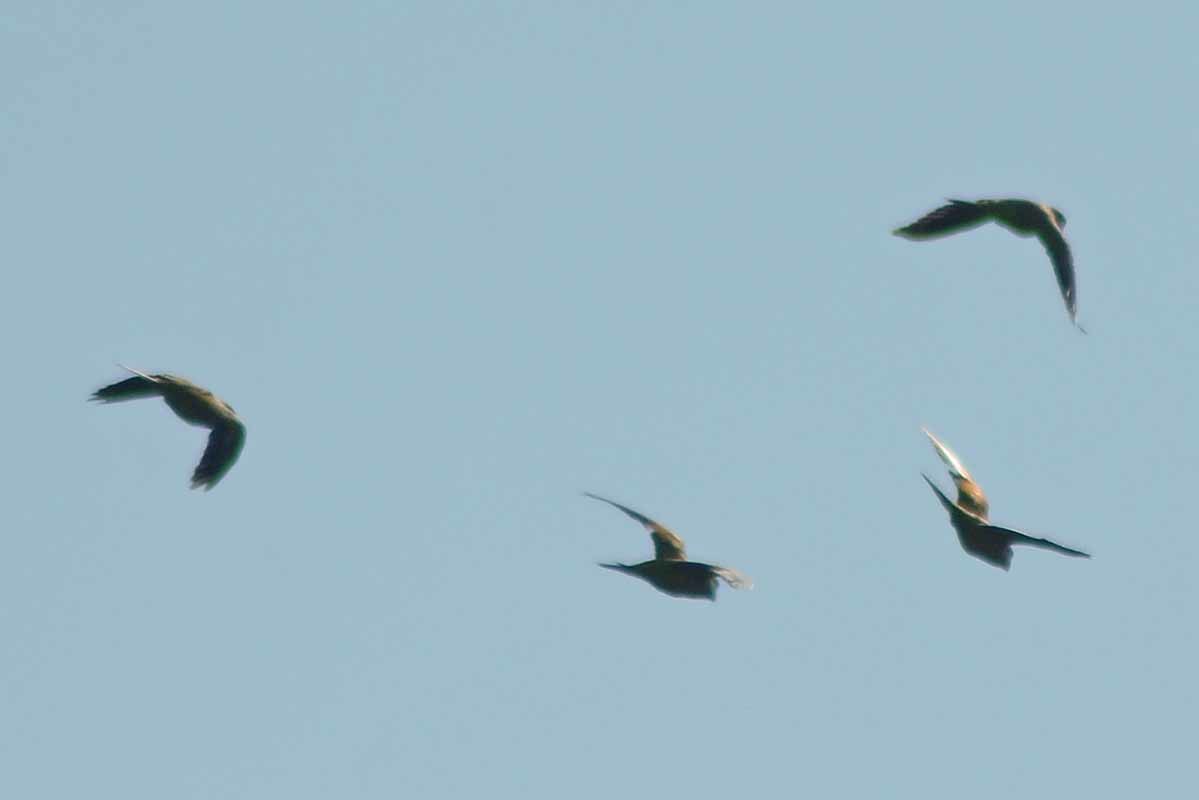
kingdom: Animalia
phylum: Chordata
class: Aves
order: Psittaciformes
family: Psittacidae
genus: Myiopsitta
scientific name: Myiopsitta monachus
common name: Monk parakeet
